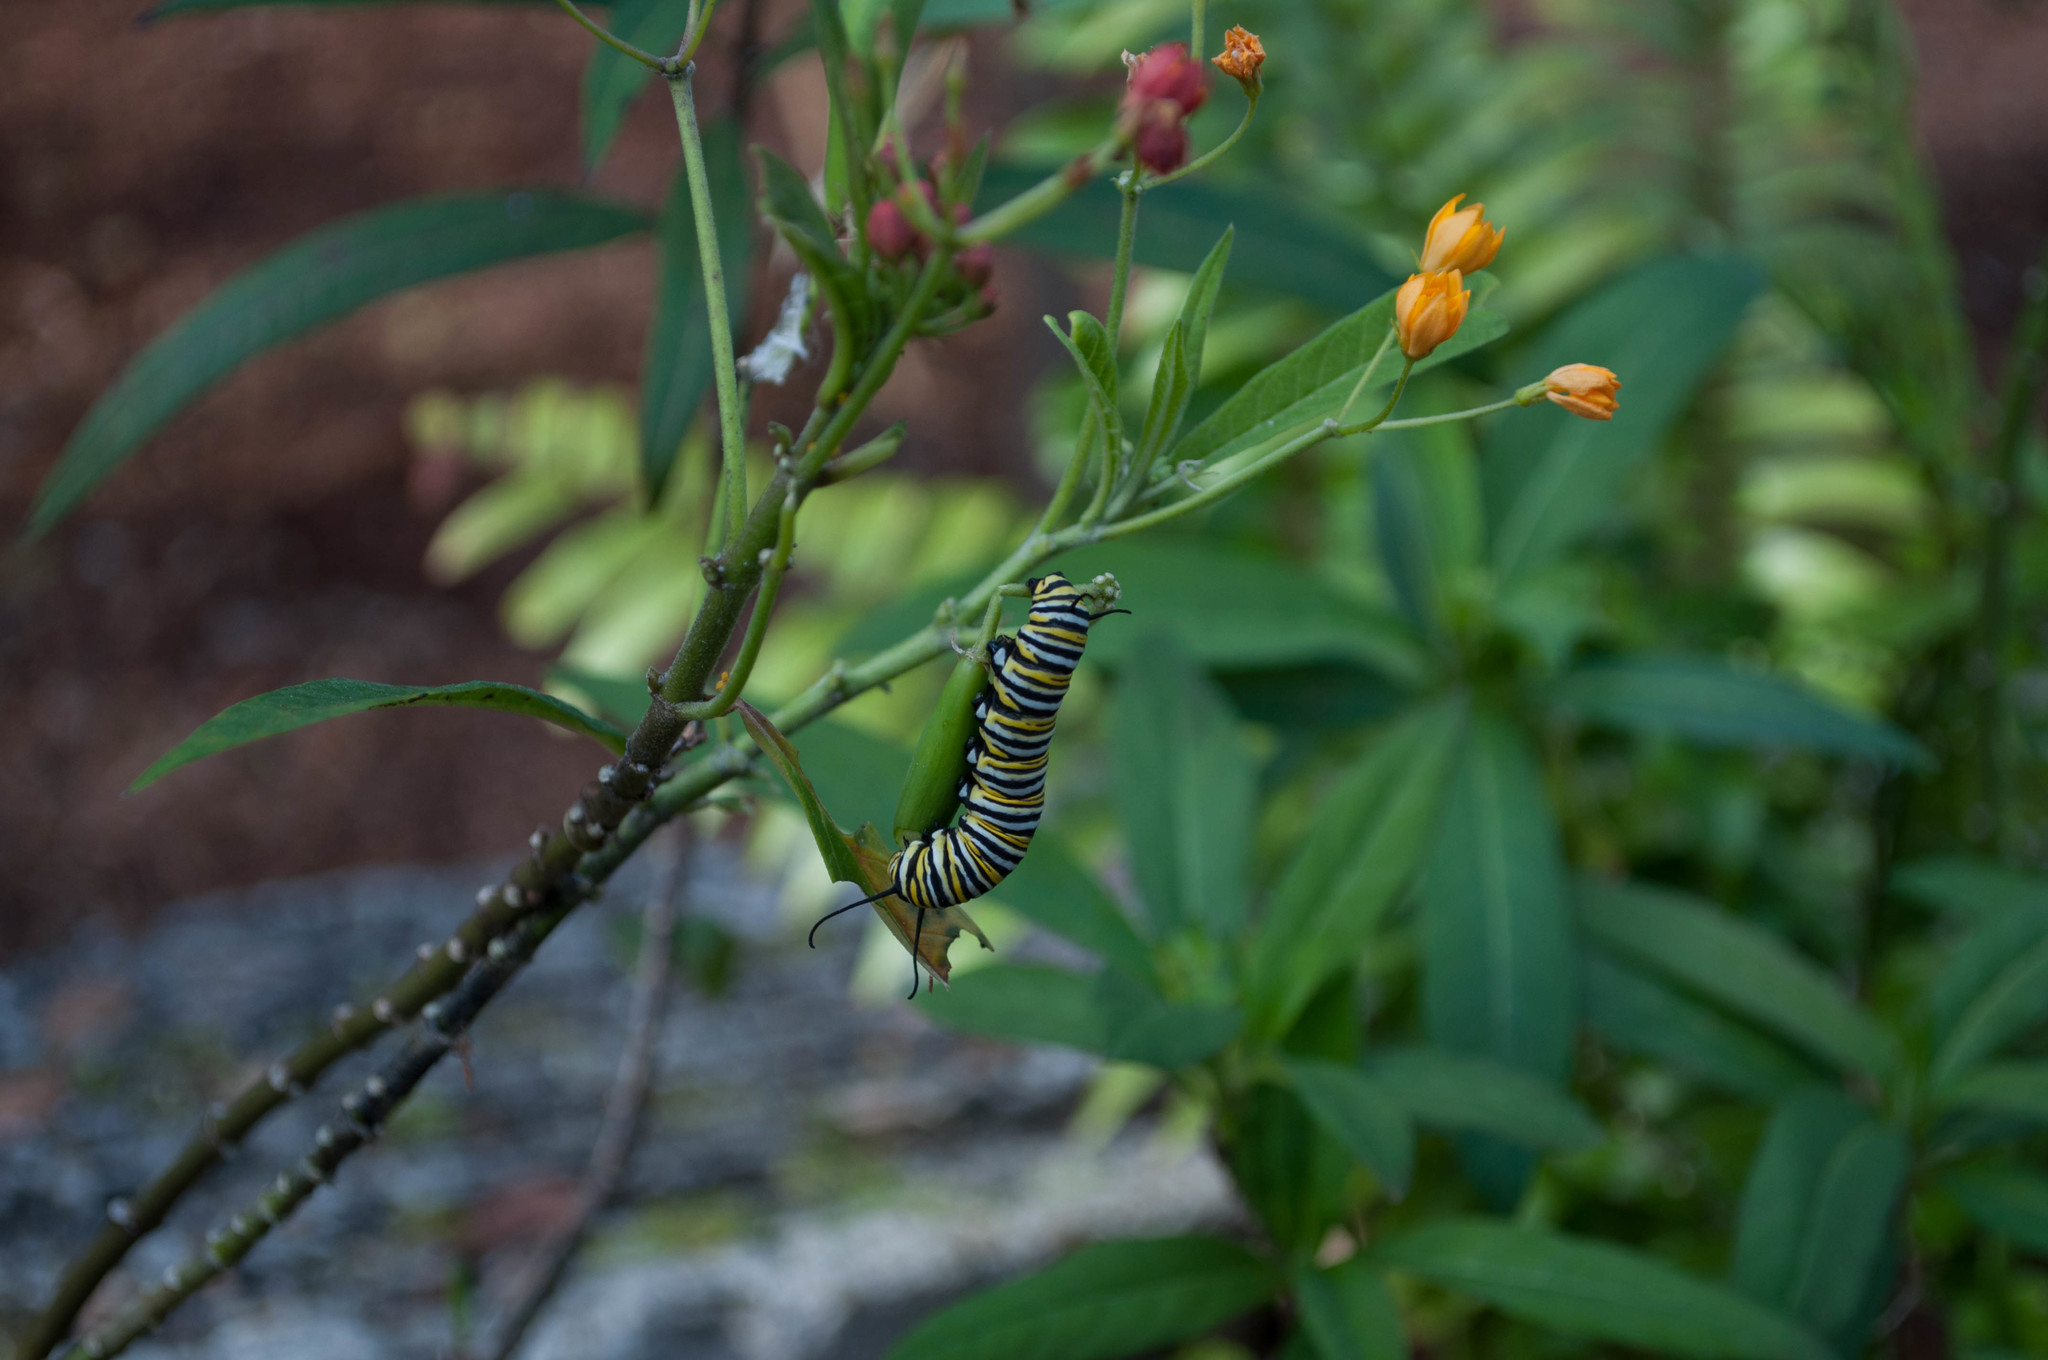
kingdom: Animalia
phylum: Arthropoda
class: Insecta
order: Lepidoptera
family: Nymphalidae
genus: Danaus
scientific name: Danaus plexippus
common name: Monarch
